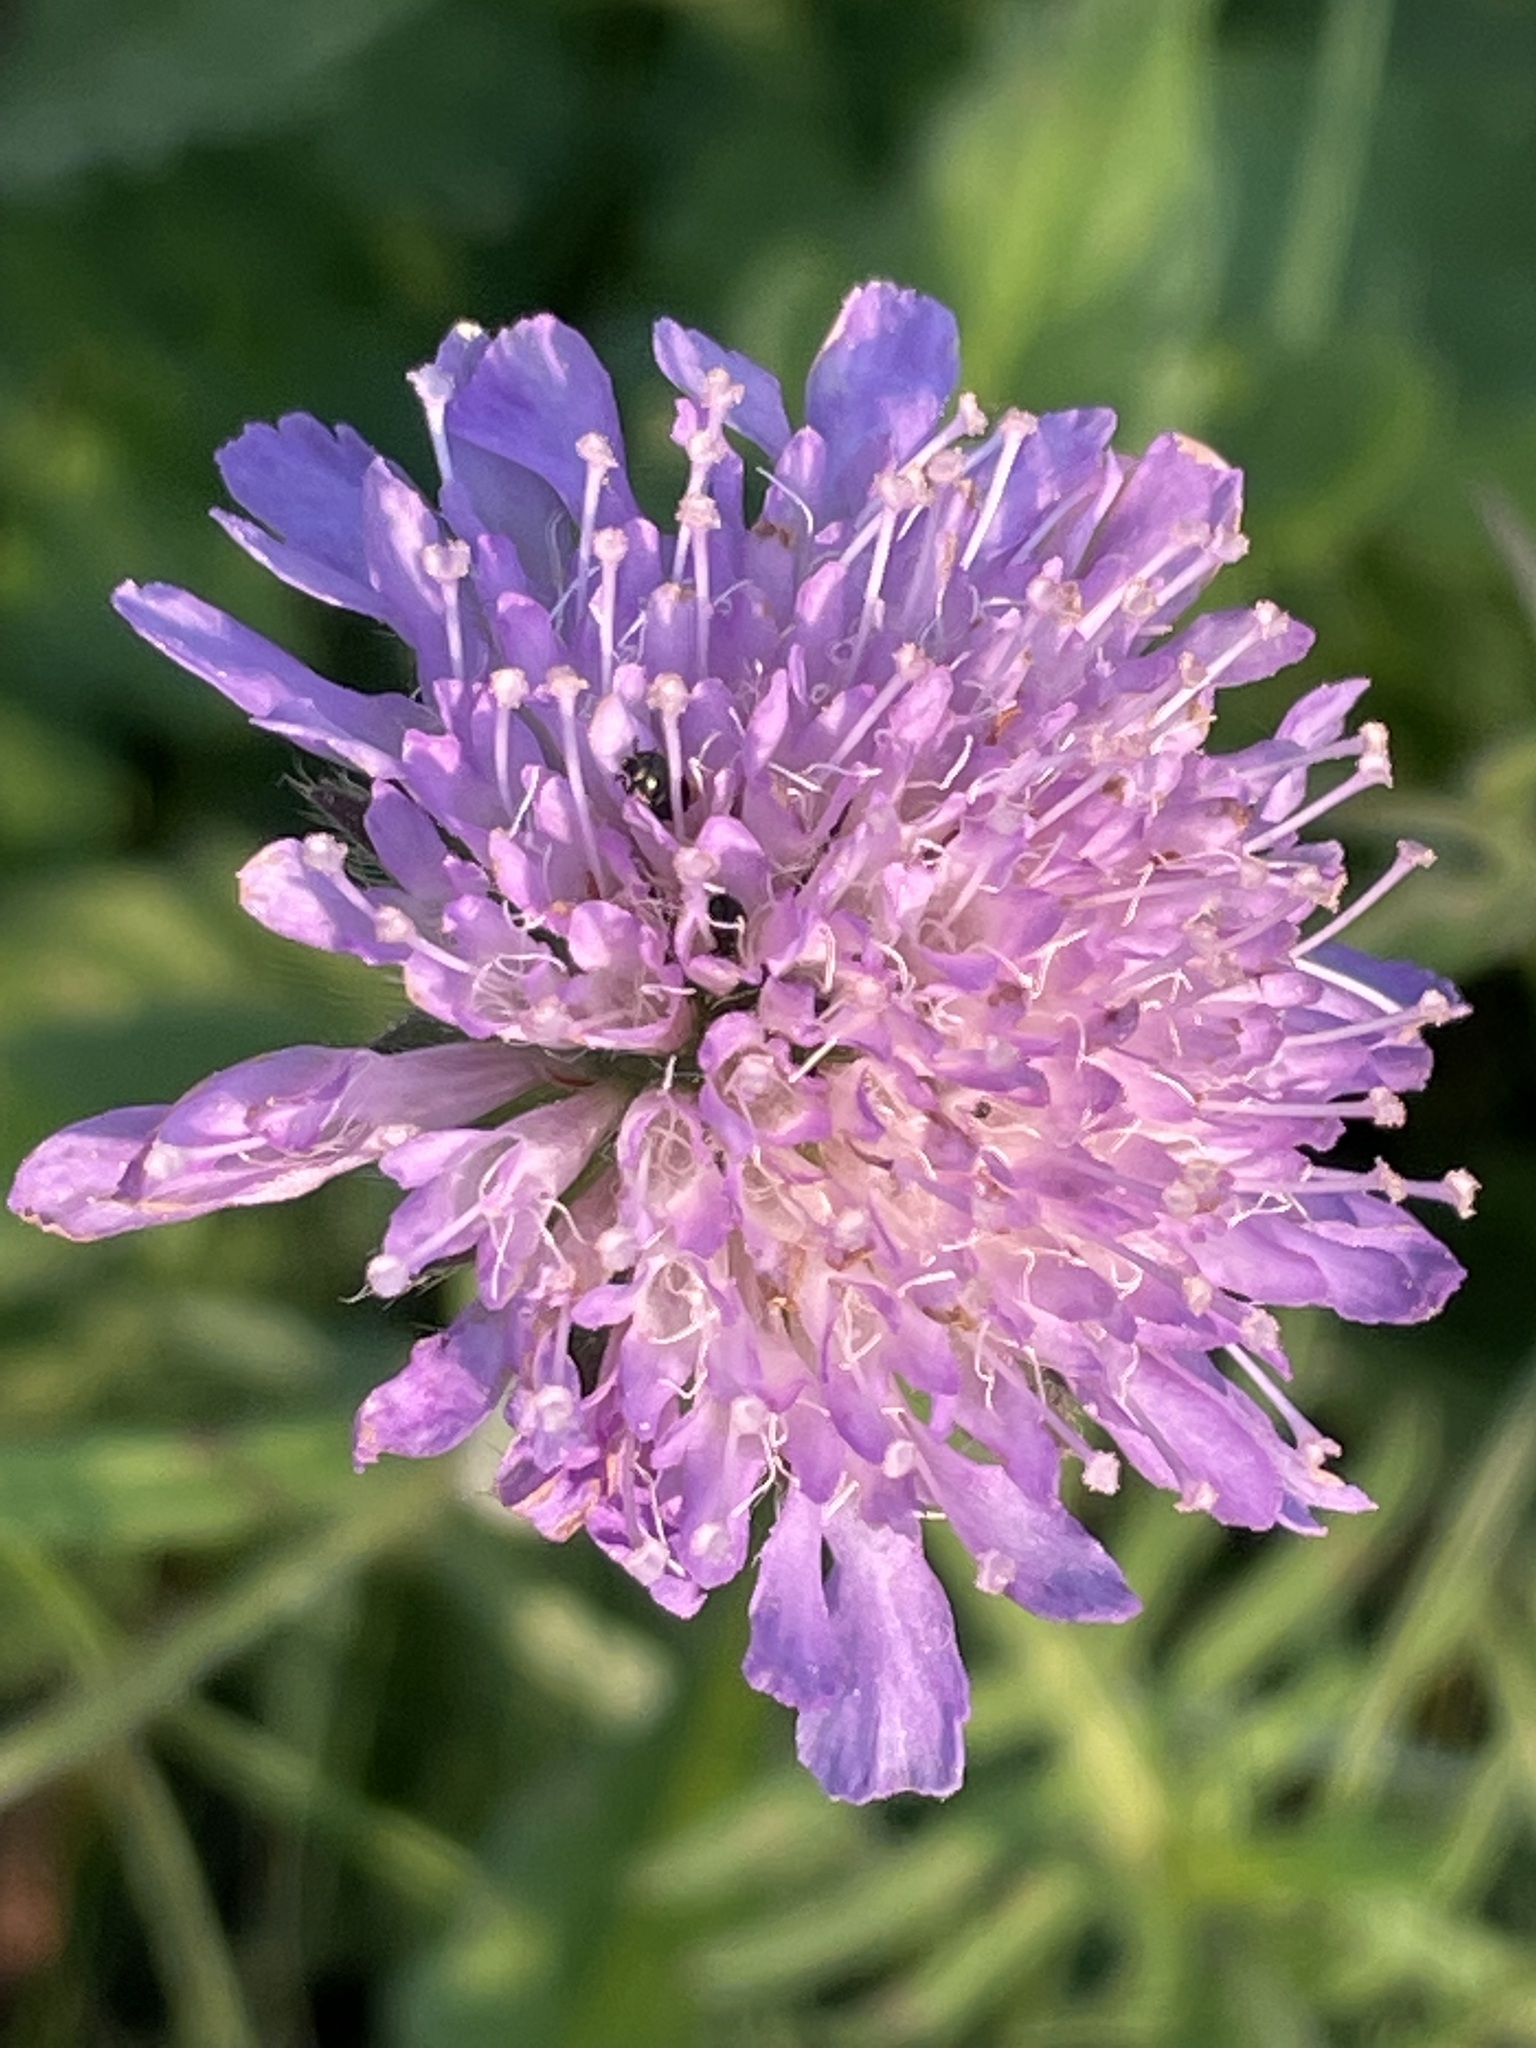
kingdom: Plantae
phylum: Tracheophyta
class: Magnoliopsida
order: Dipsacales
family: Caprifoliaceae
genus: Knautia
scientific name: Knautia arvensis
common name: Field scabiosa
